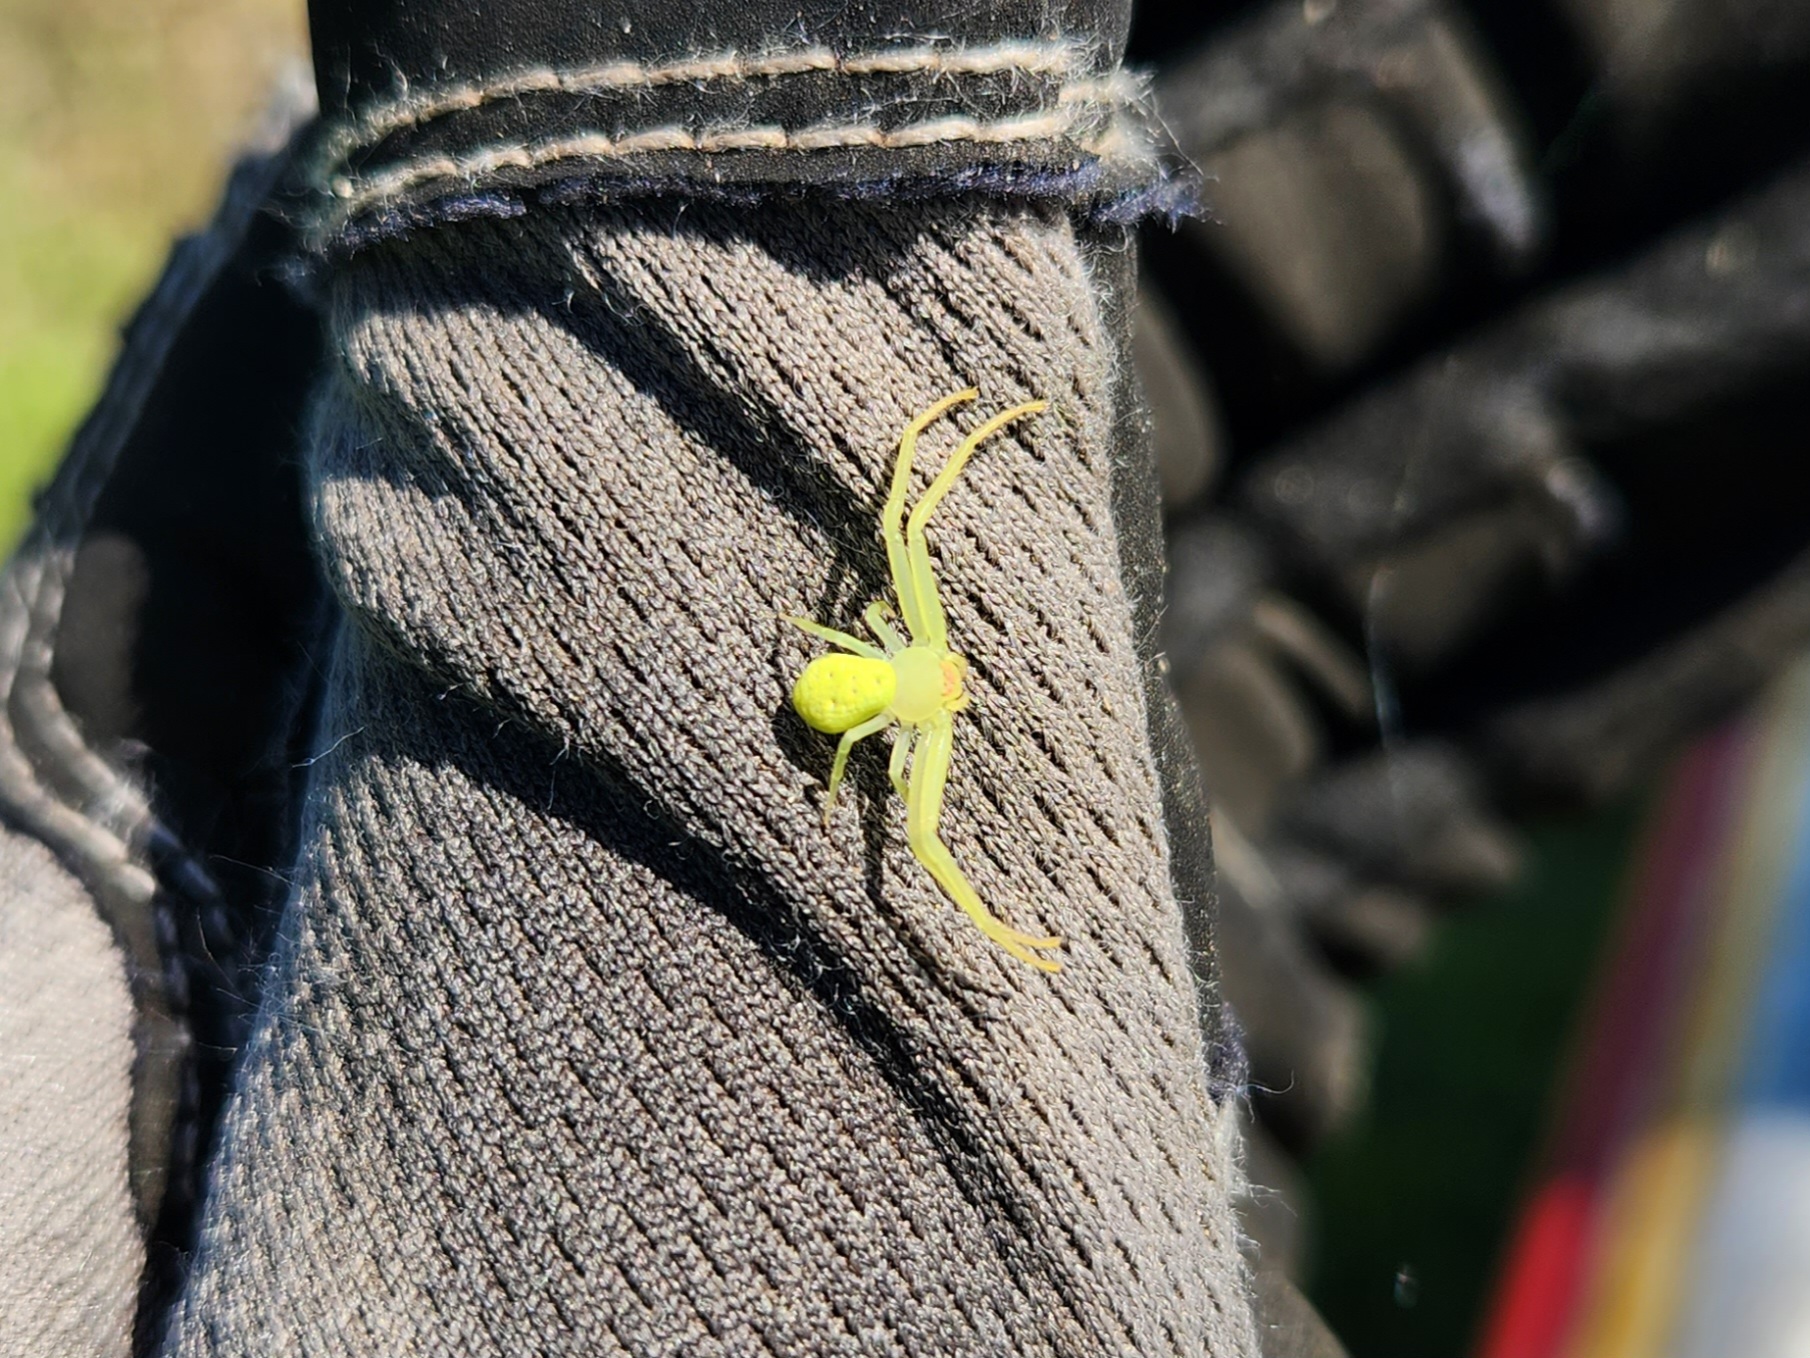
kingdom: Animalia
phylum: Arthropoda
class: Arachnida
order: Araneae
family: Thomisidae
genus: Misumessus
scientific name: Misumessus oblongus
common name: American green crab spider
